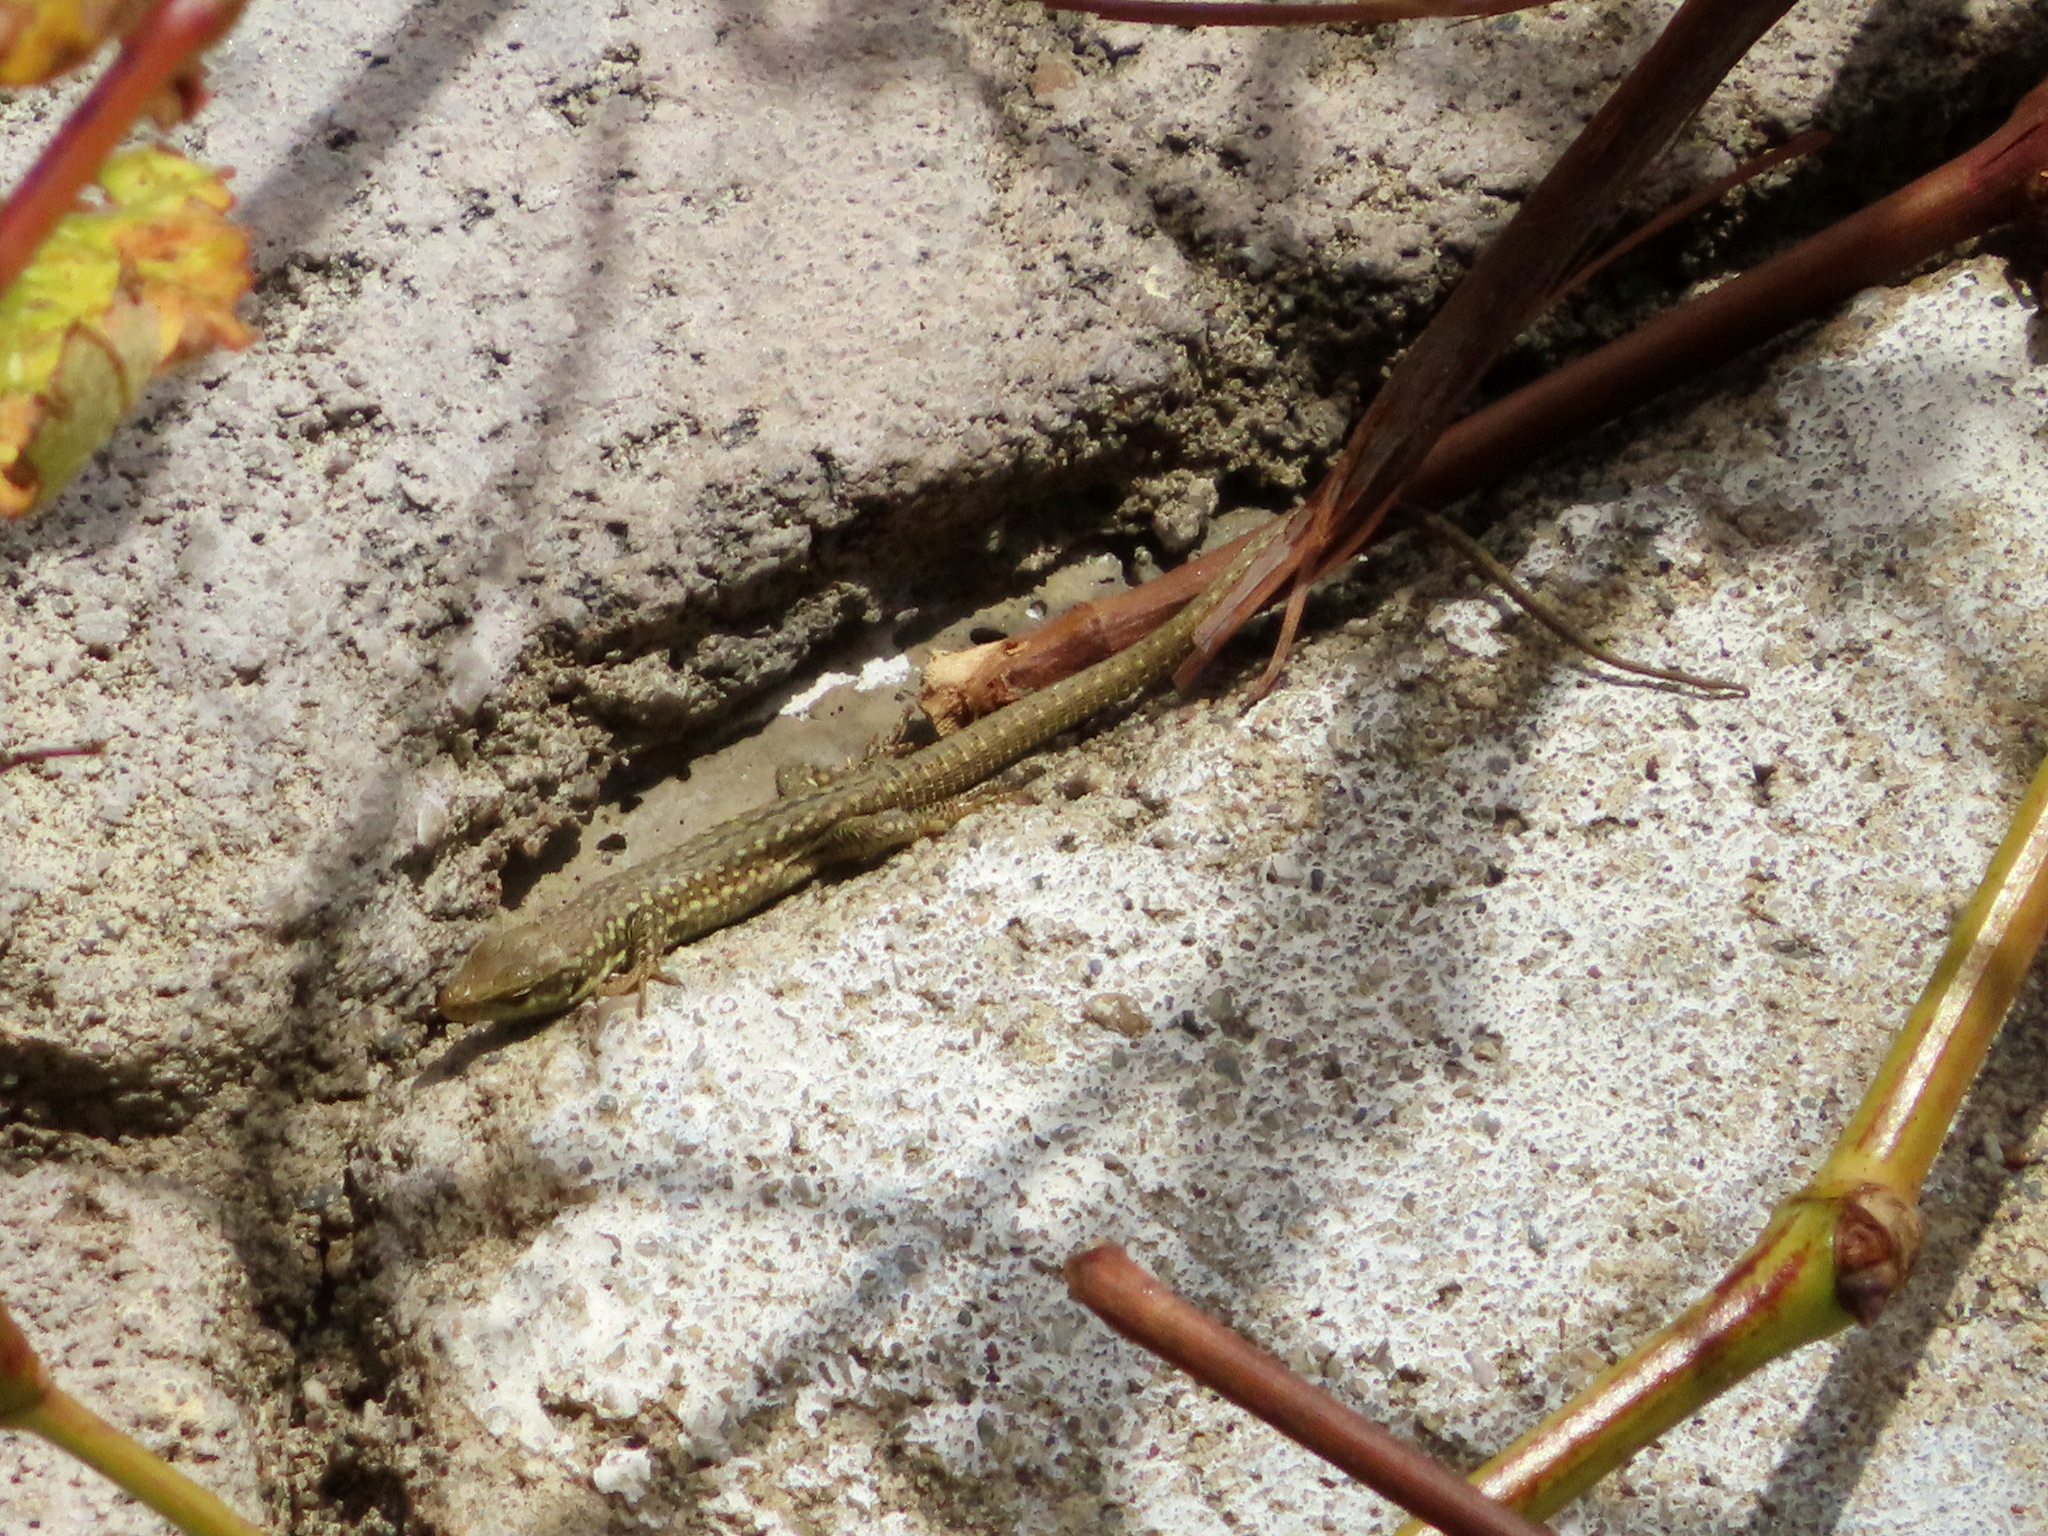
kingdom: Animalia
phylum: Chordata
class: Squamata
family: Lacertidae
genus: Podarcis
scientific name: Podarcis siculus
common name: Italian wall lizard
